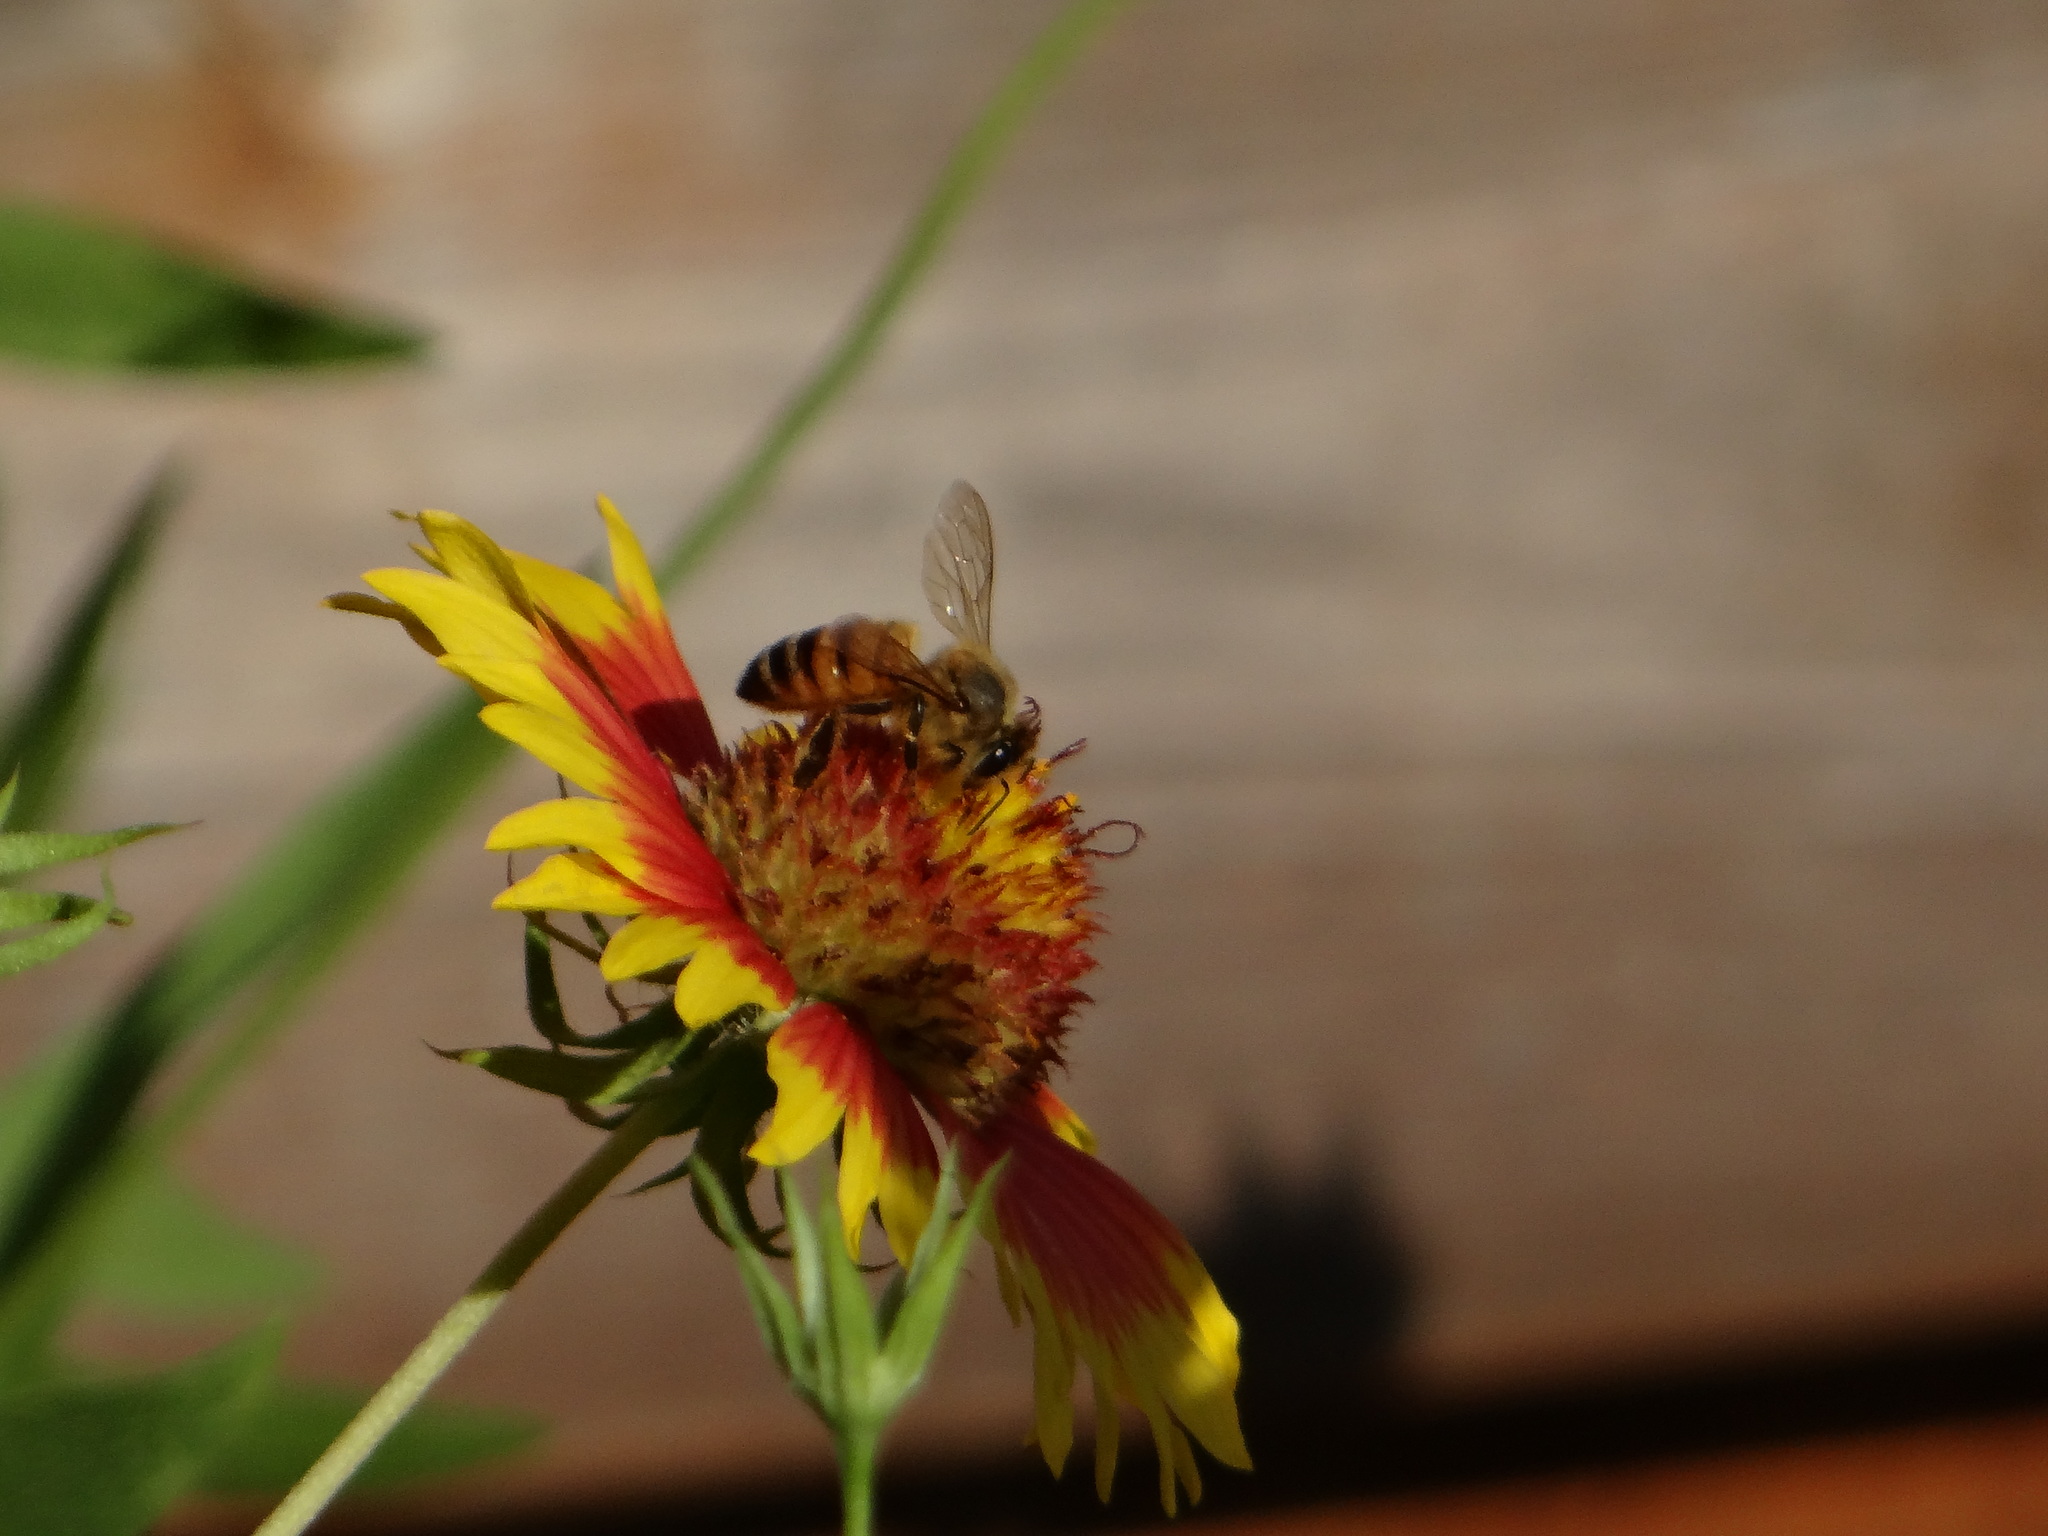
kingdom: Animalia
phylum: Arthropoda
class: Insecta
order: Hymenoptera
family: Apidae
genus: Apis
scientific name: Apis mellifera
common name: Honey bee
